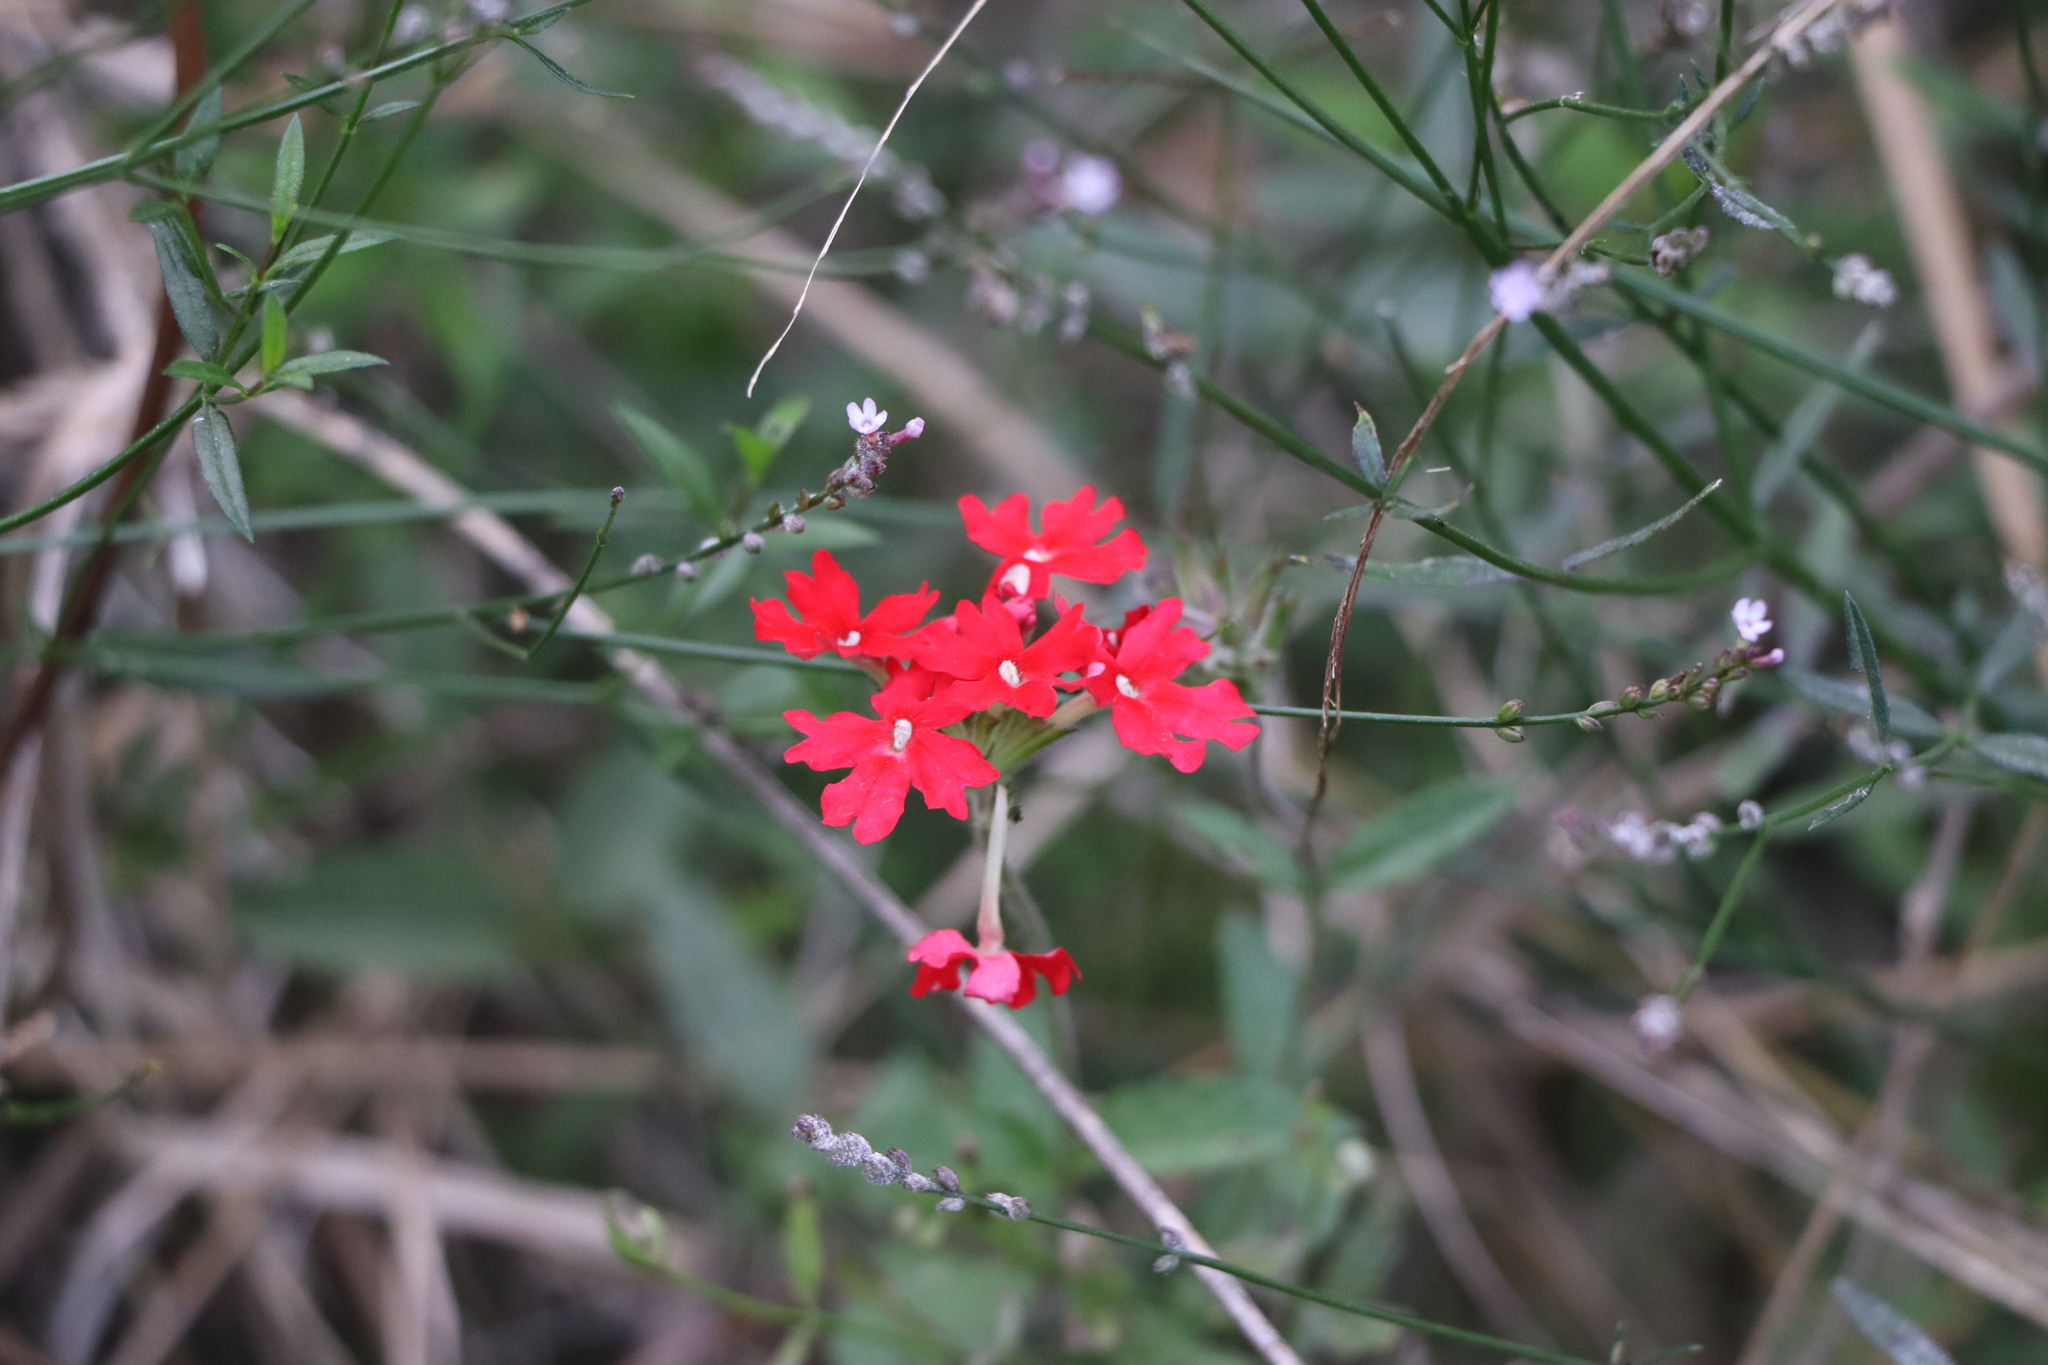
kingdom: Plantae
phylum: Tracheophyta
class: Magnoliopsida
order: Lamiales
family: Verbenaceae
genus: Verbena
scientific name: Verbena peruviana
